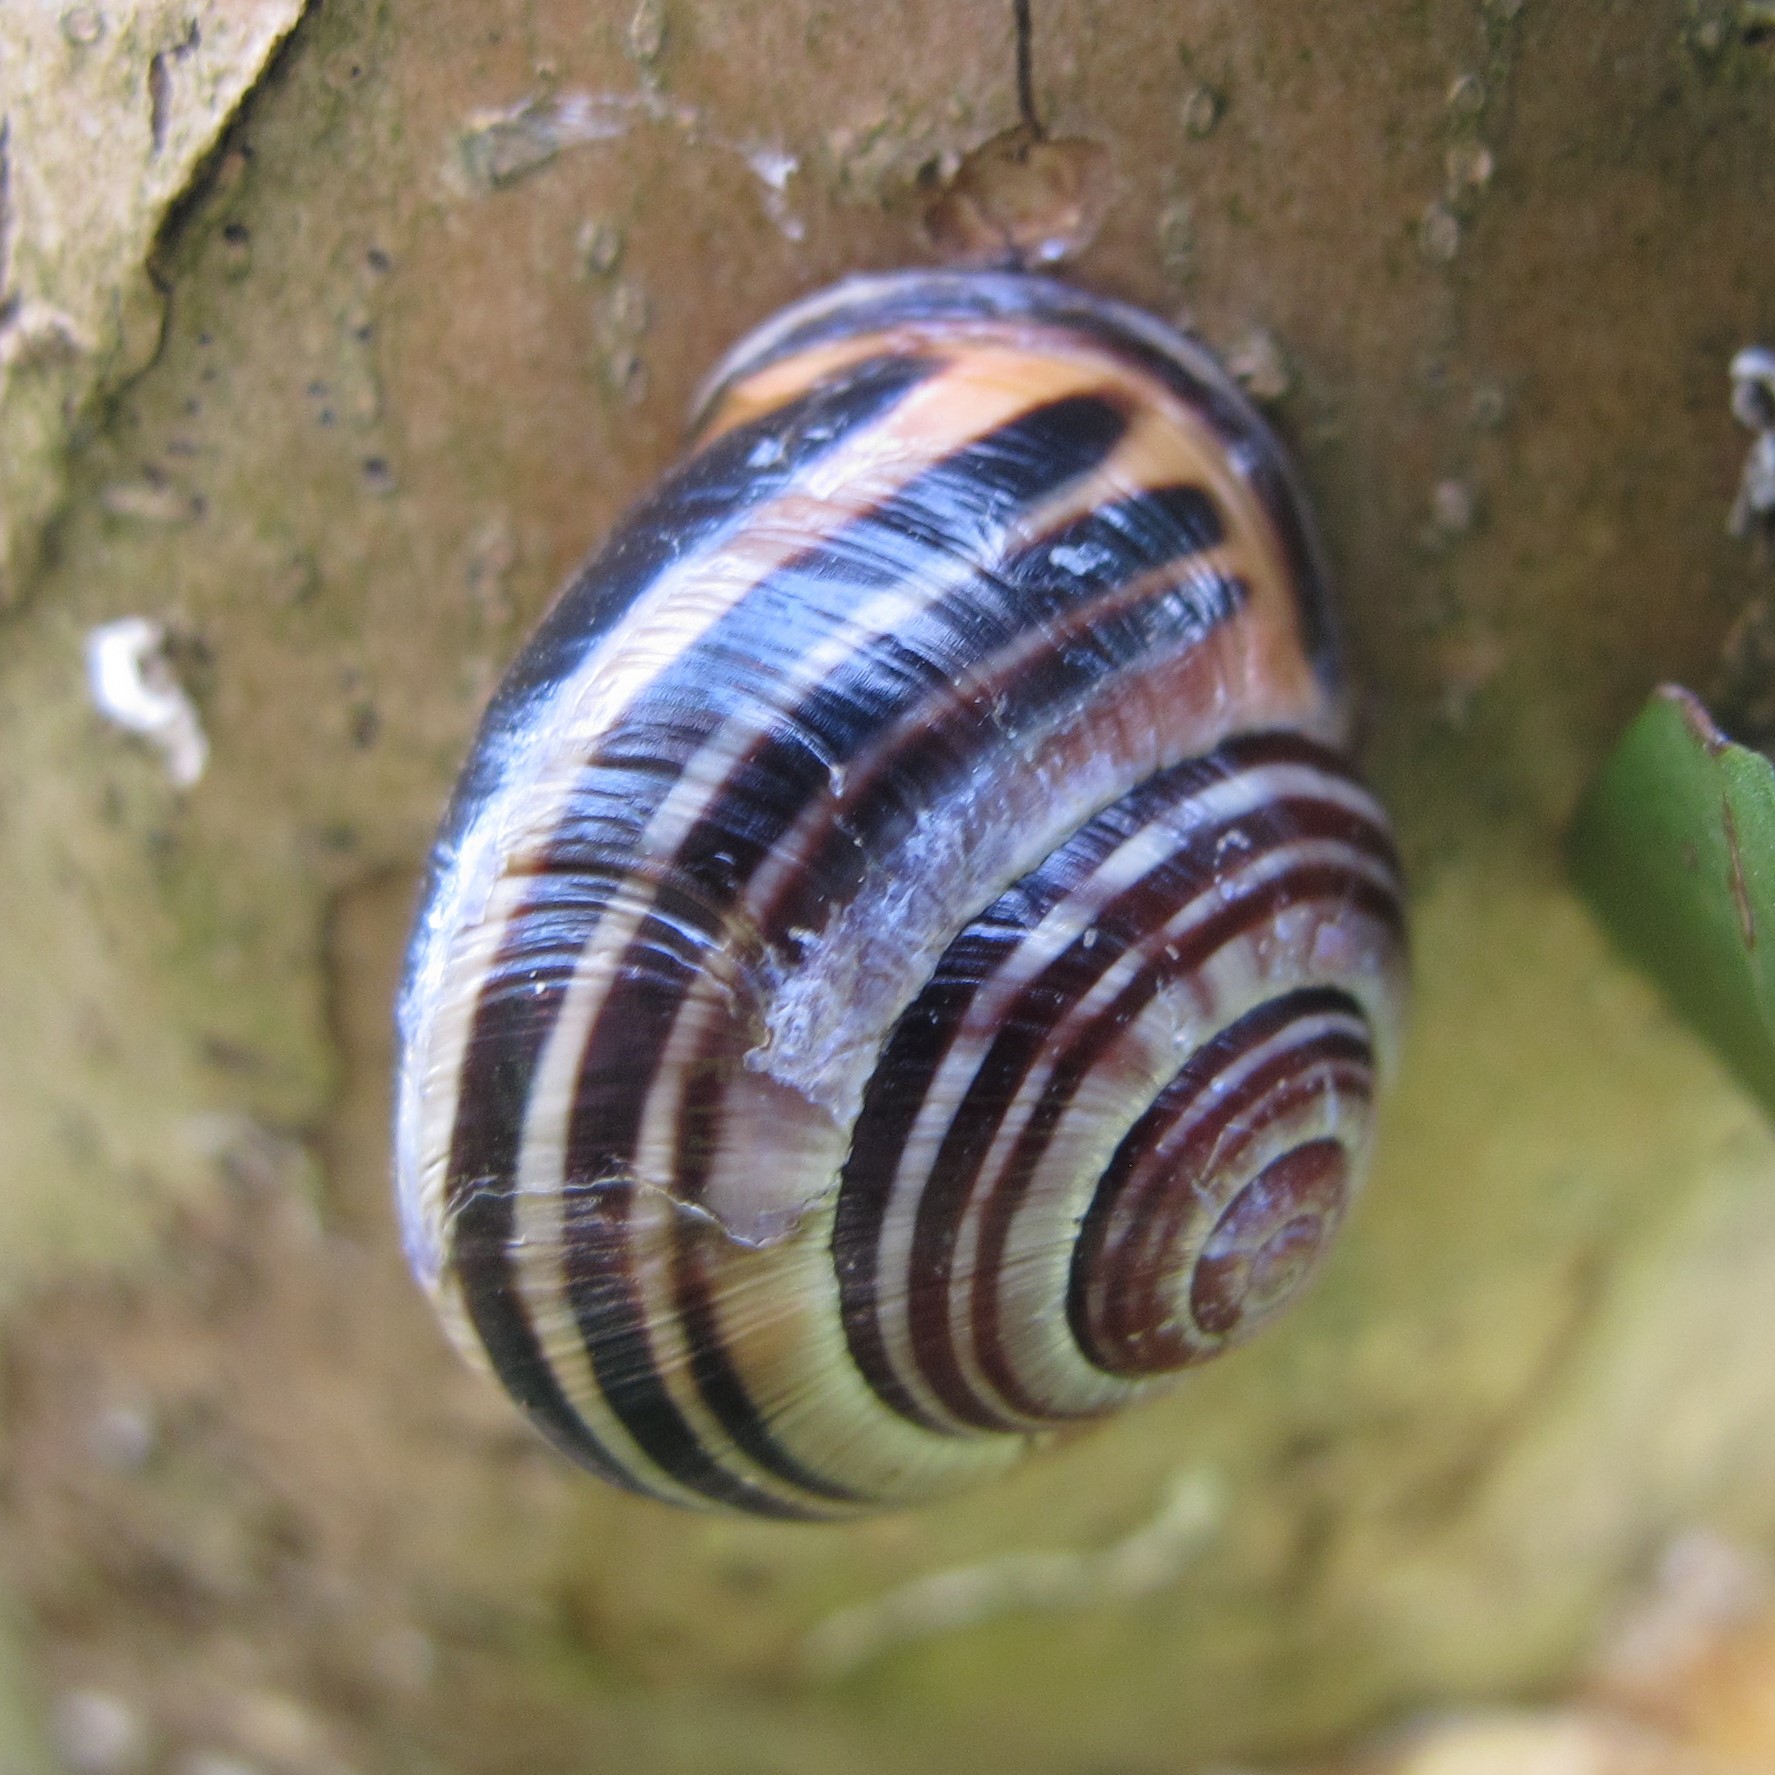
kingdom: Animalia
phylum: Mollusca
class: Gastropoda
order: Stylommatophora
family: Helicidae
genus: Cepaea
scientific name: Cepaea nemoralis
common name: Grovesnail
